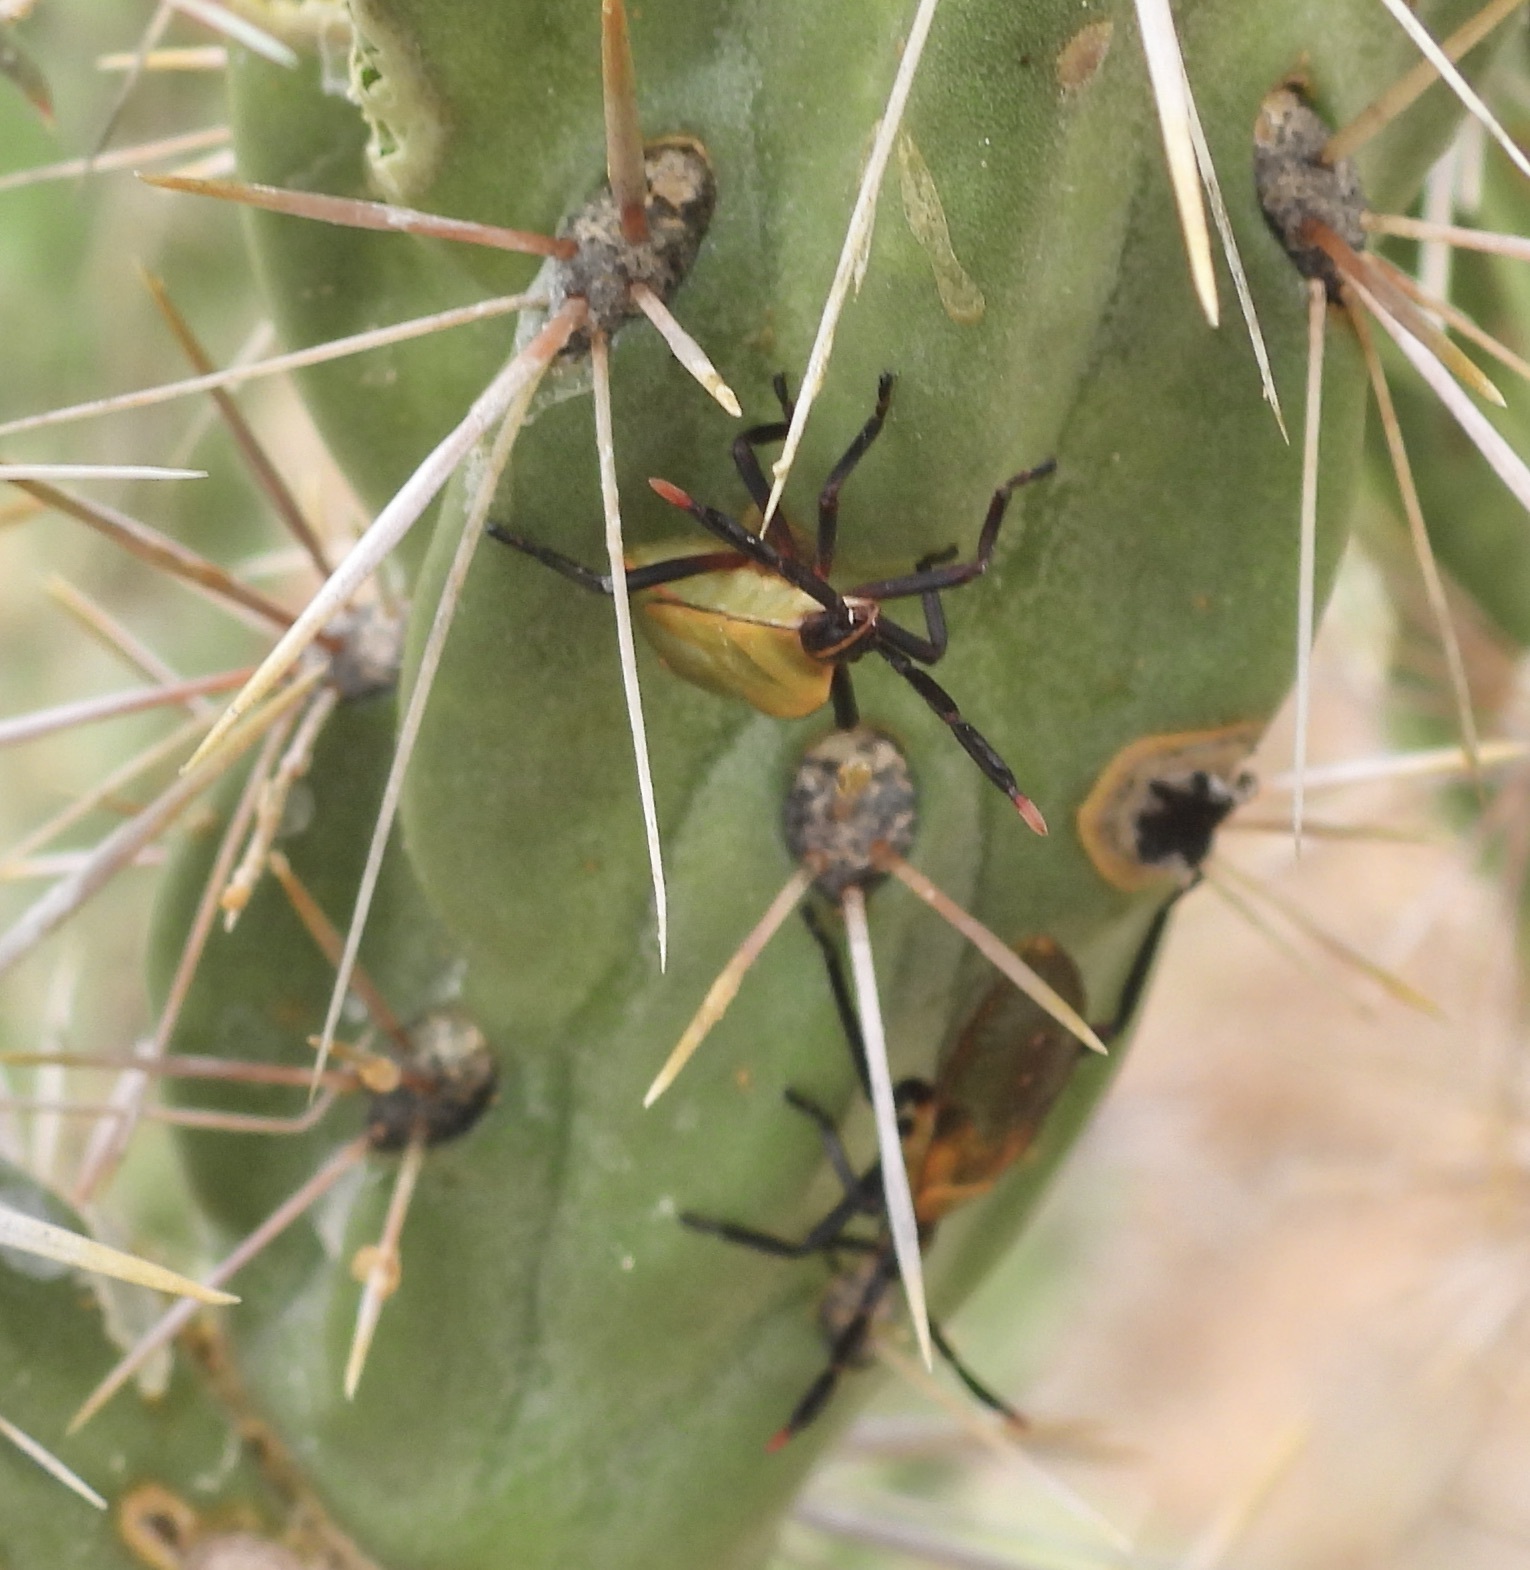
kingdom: Animalia
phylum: Arthropoda
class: Insecta
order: Hemiptera
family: Coreidae
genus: Chelinidea
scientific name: Chelinidea vittiger
